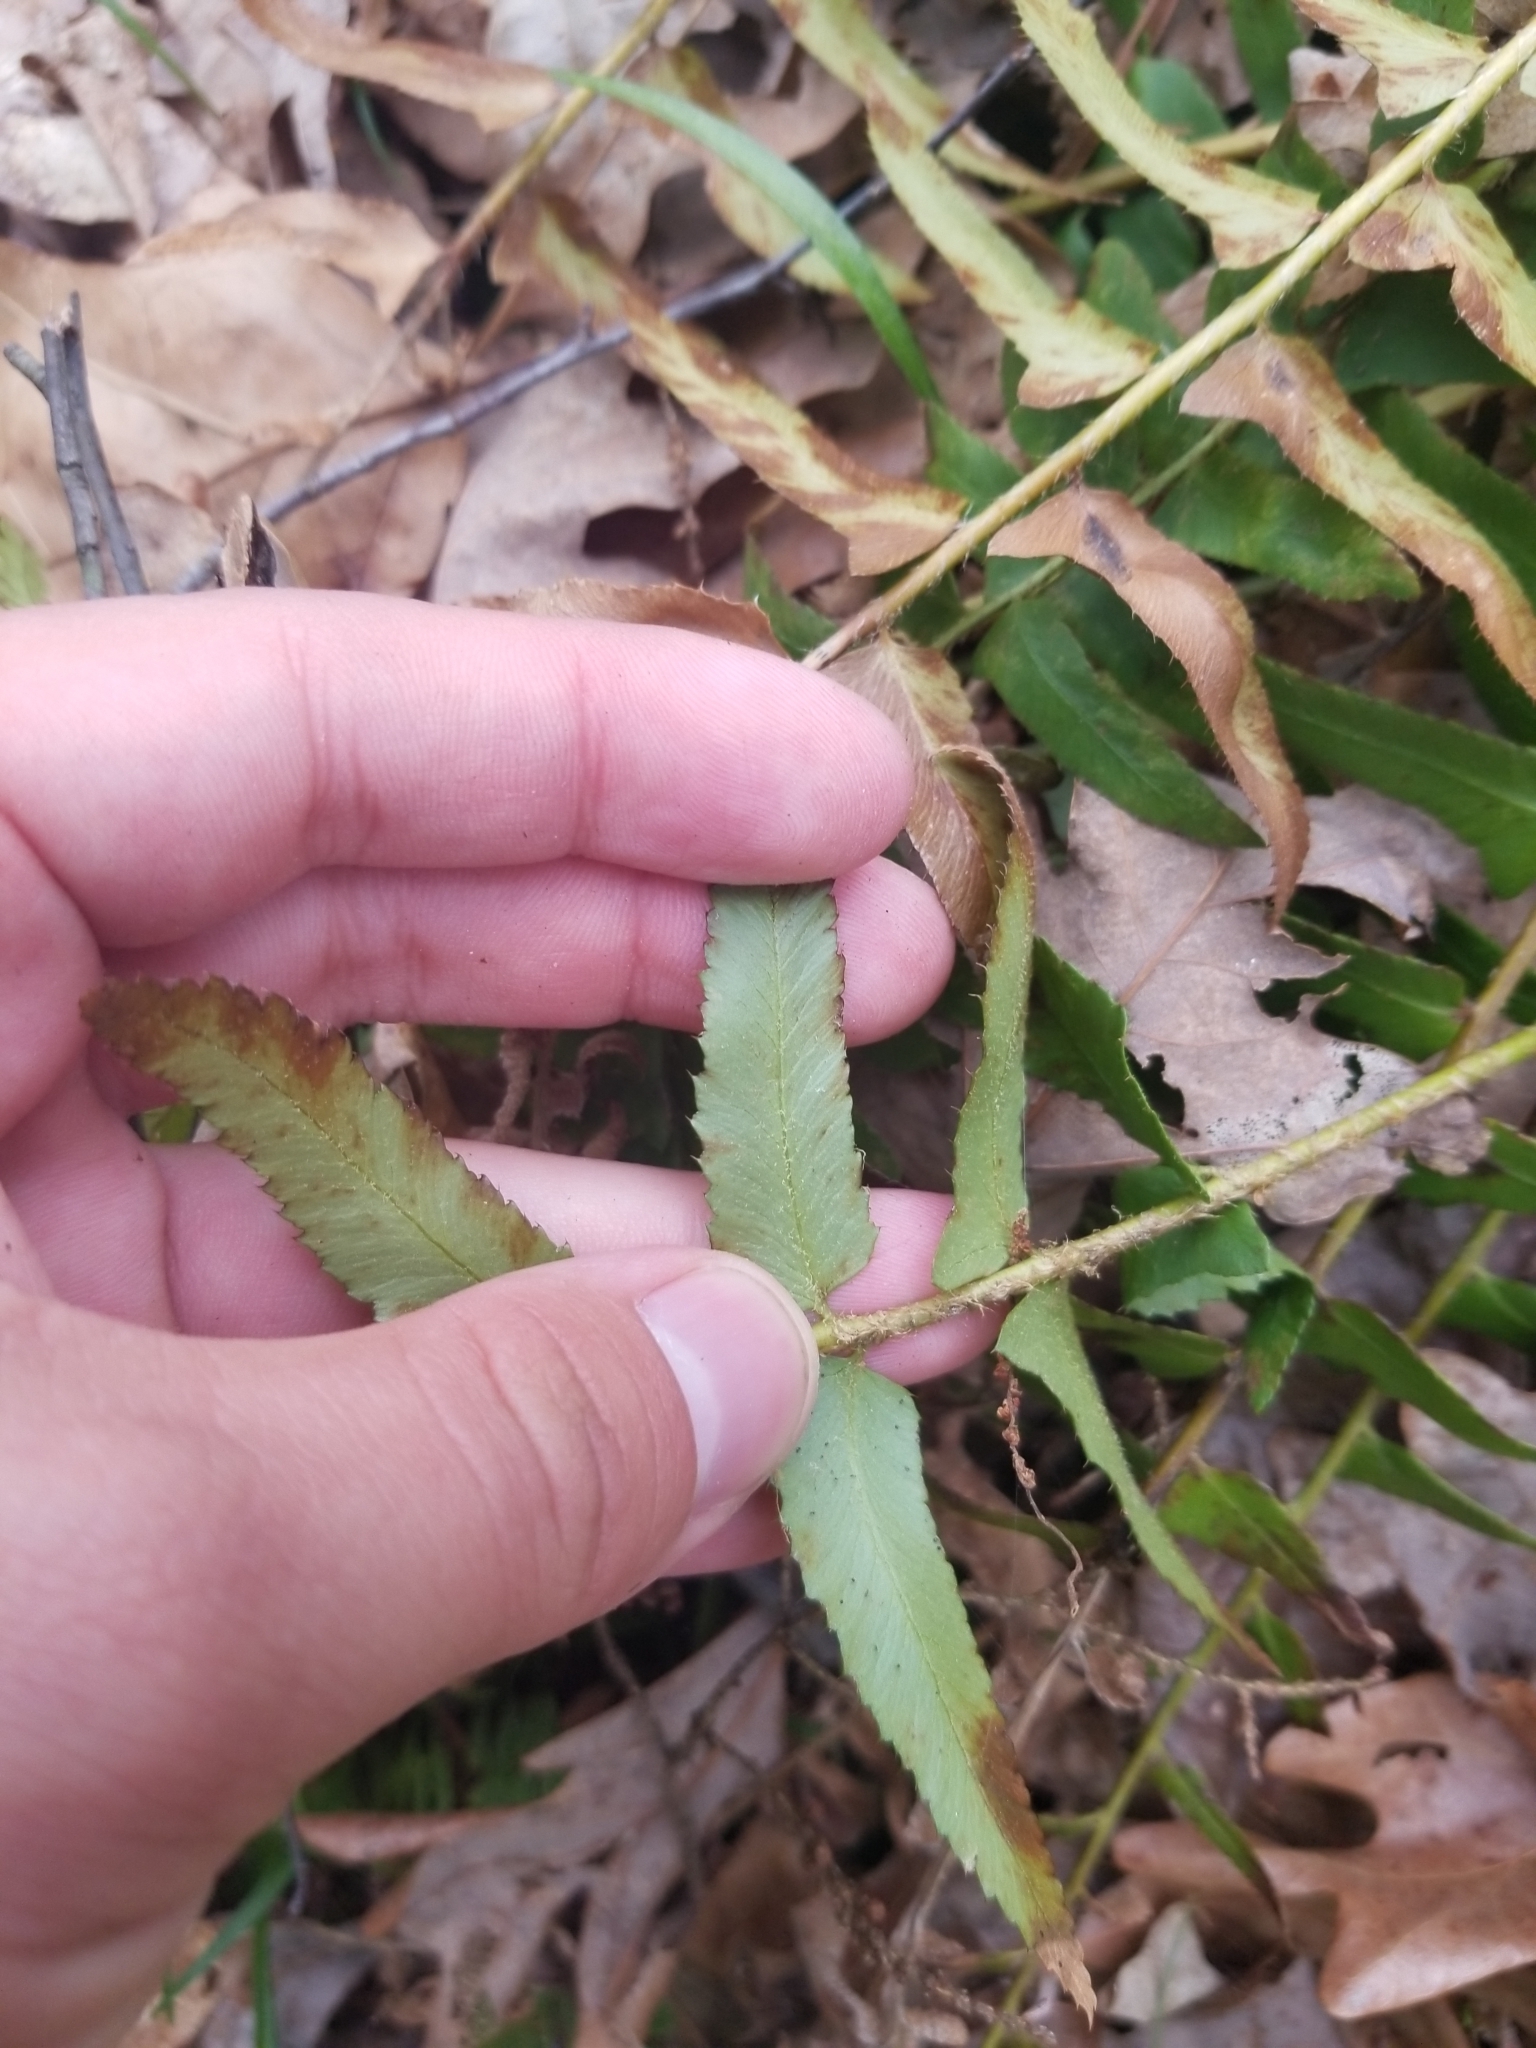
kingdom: Plantae
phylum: Tracheophyta
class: Polypodiopsida
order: Polypodiales
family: Dryopteridaceae
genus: Polystichum
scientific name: Polystichum acrostichoides
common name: Christmas fern
